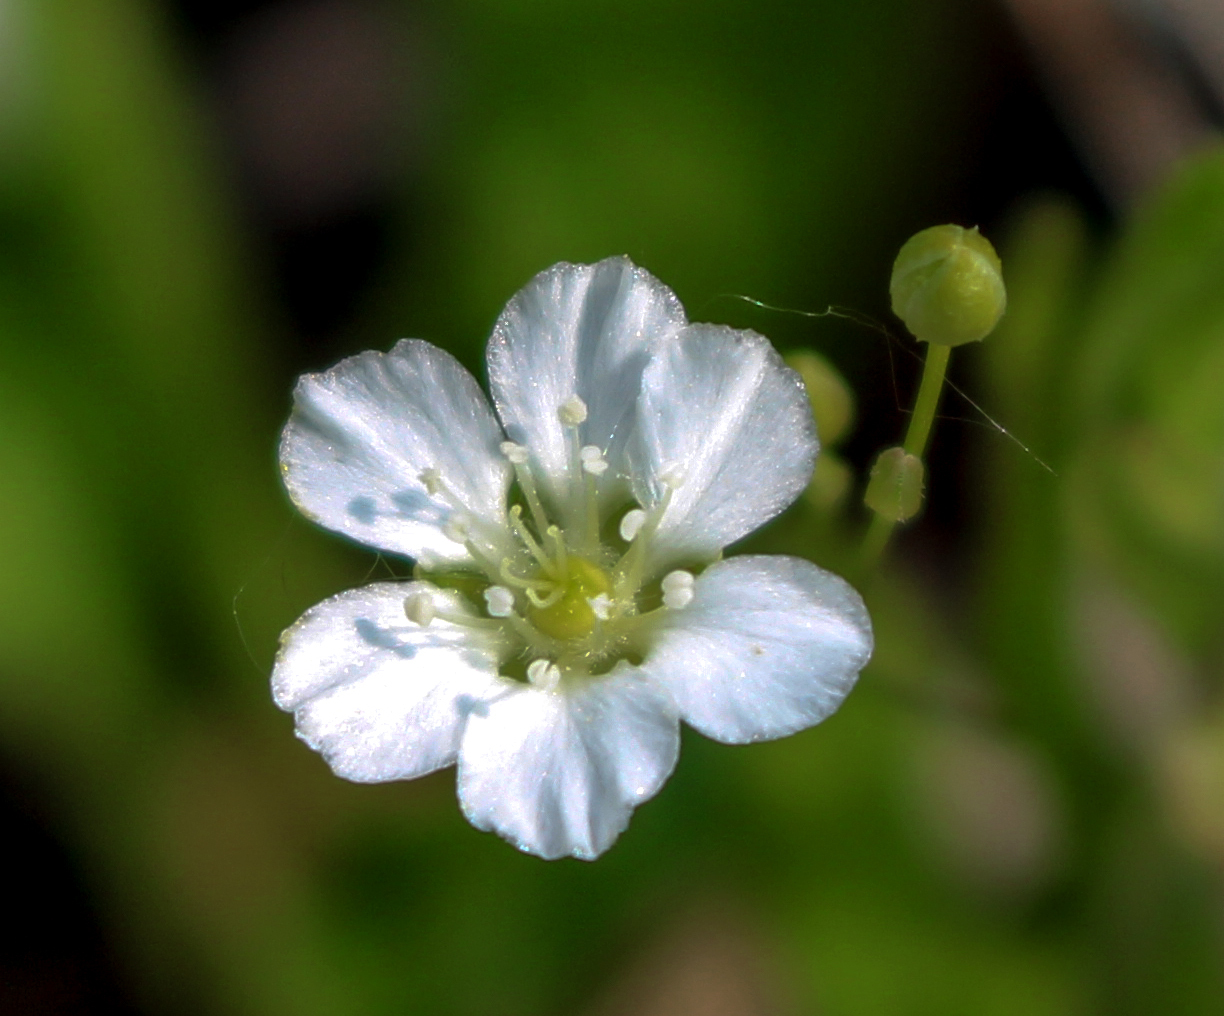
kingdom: Plantae
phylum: Tracheophyta
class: Magnoliopsida
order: Caryophyllales
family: Caryophyllaceae
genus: Moehringia
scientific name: Moehringia lateriflora
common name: Blunt-leaved sandwort
